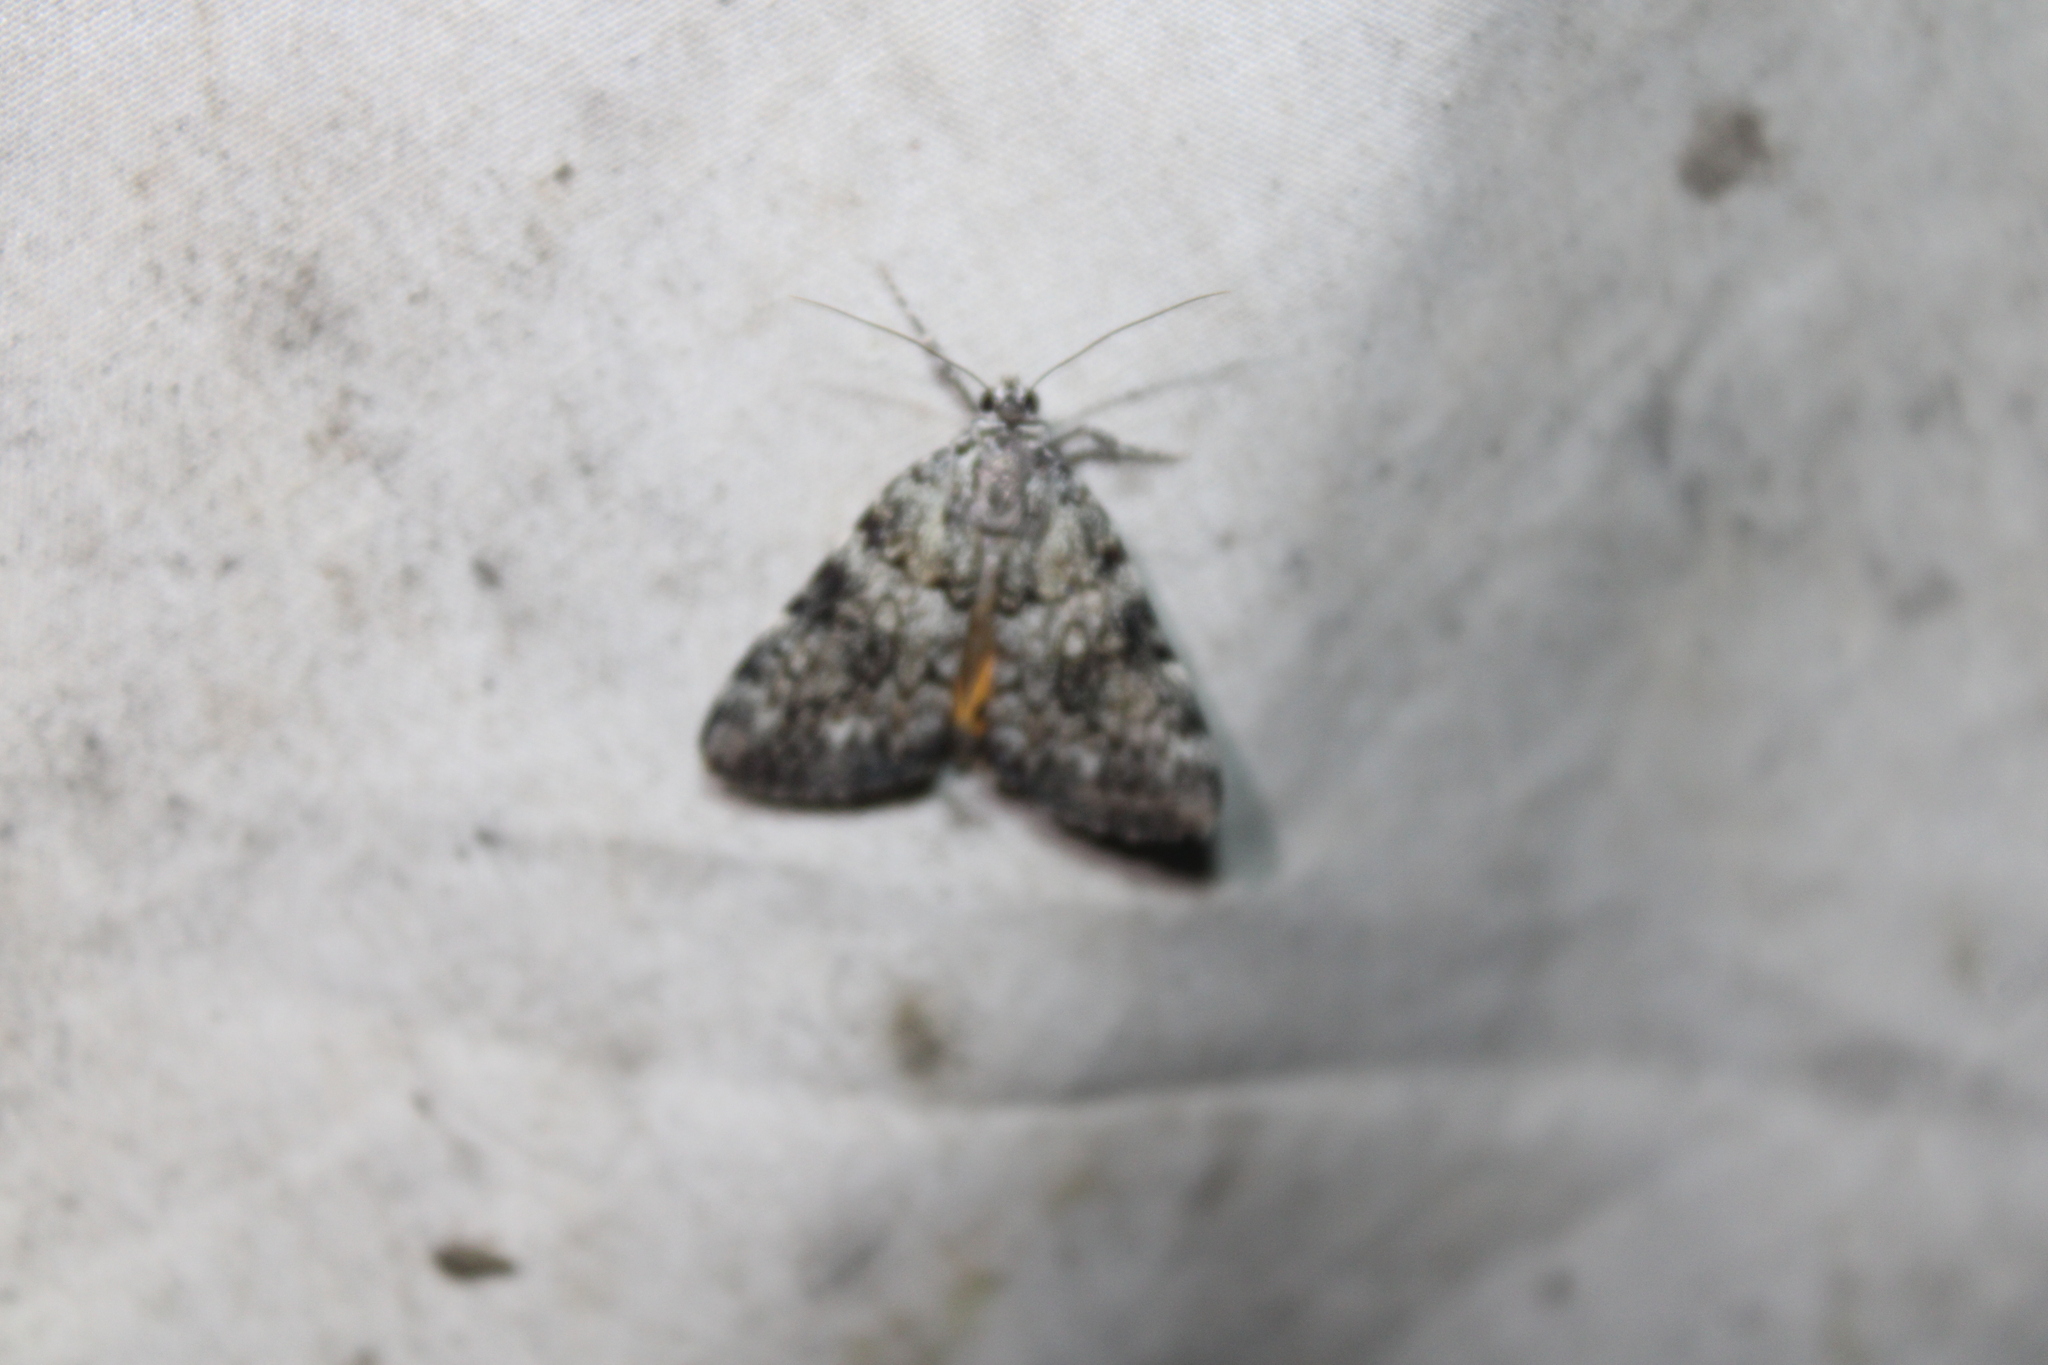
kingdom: Animalia
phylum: Arthropoda
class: Insecta
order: Lepidoptera
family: Erebidae
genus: Catocala
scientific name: Catocala lineella
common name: Little lined underwing
